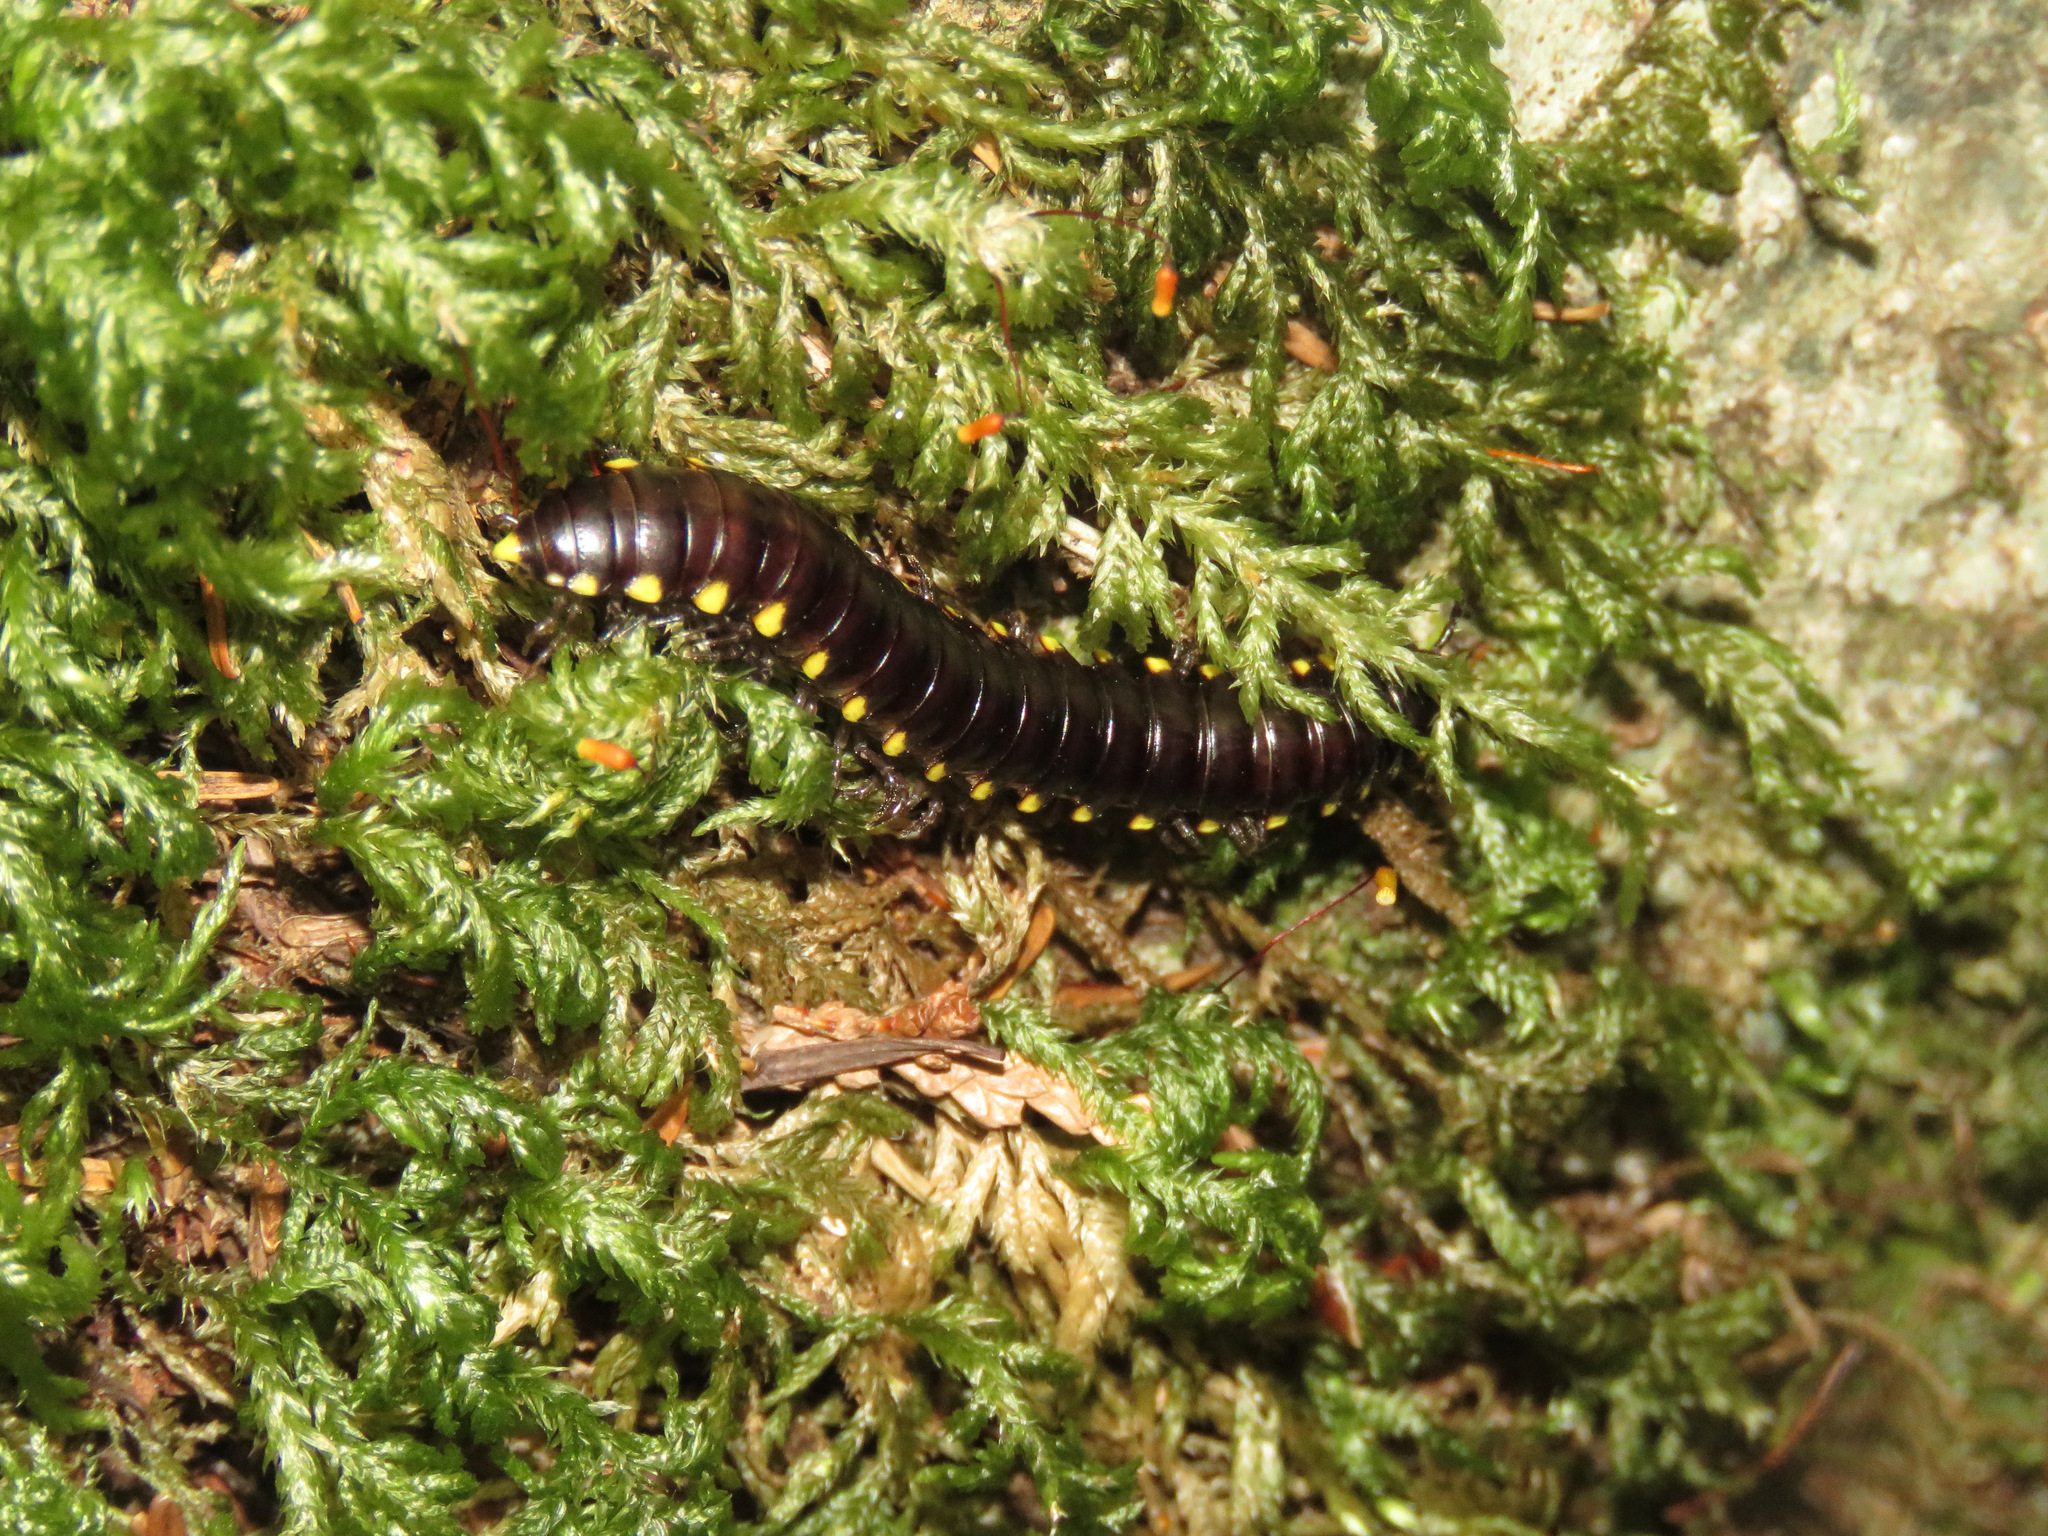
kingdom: Animalia
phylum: Arthropoda
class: Diplopoda
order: Polydesmida
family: Xystodesmidae
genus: Harpaphe
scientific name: Harpaphe haydeniana
